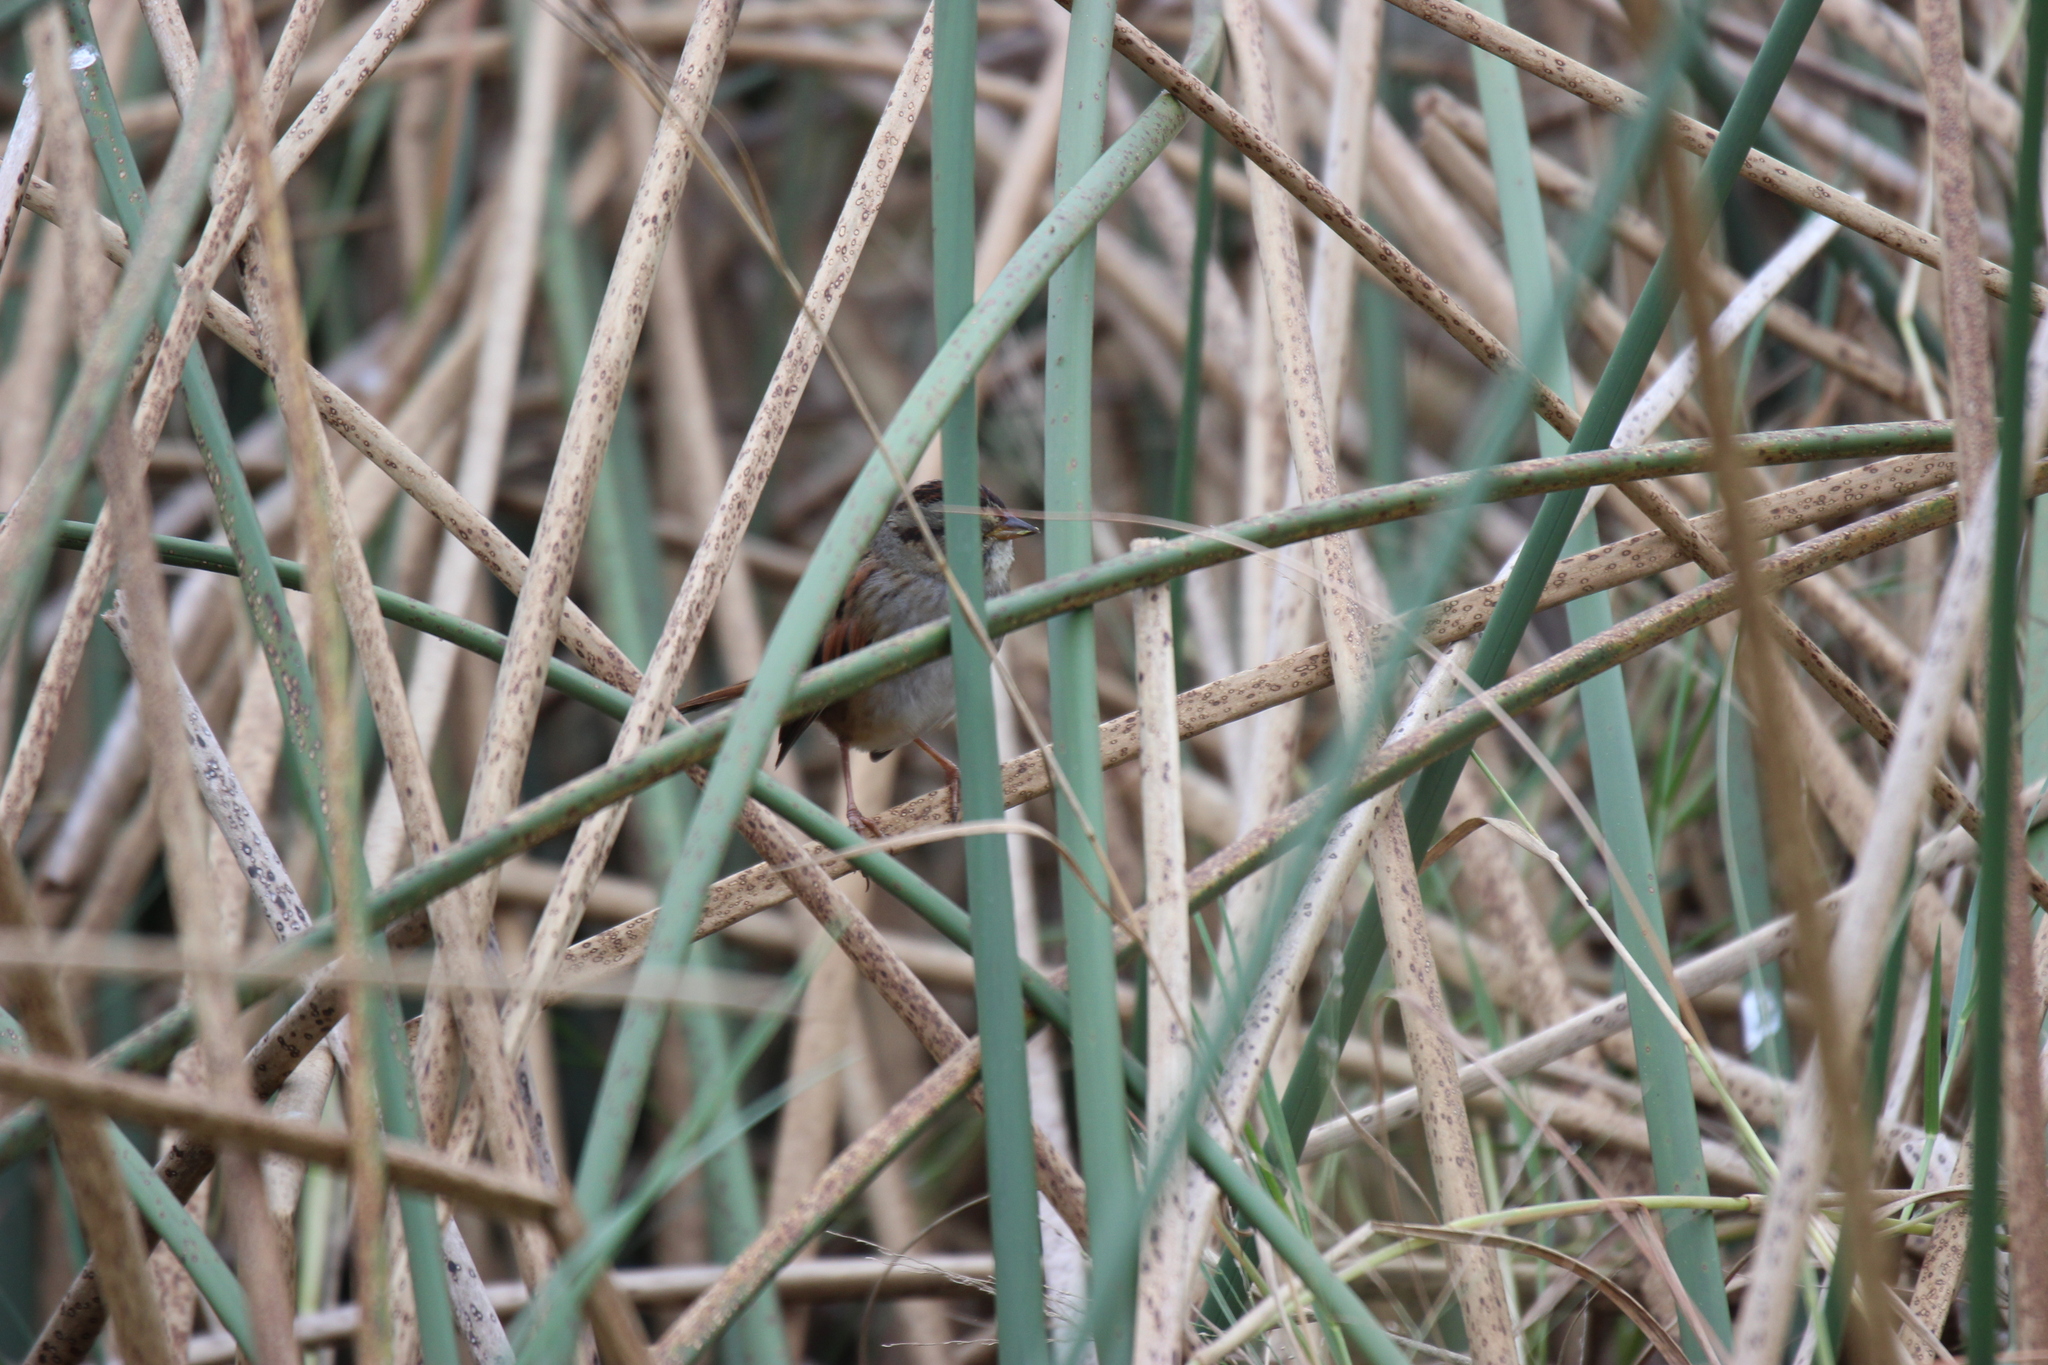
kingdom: Animalia
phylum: Chordata
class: Aves
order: Passeriformes
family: Passerellidae
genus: Melospiza
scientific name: Melospiza georgiana
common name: Swamp sparrow
